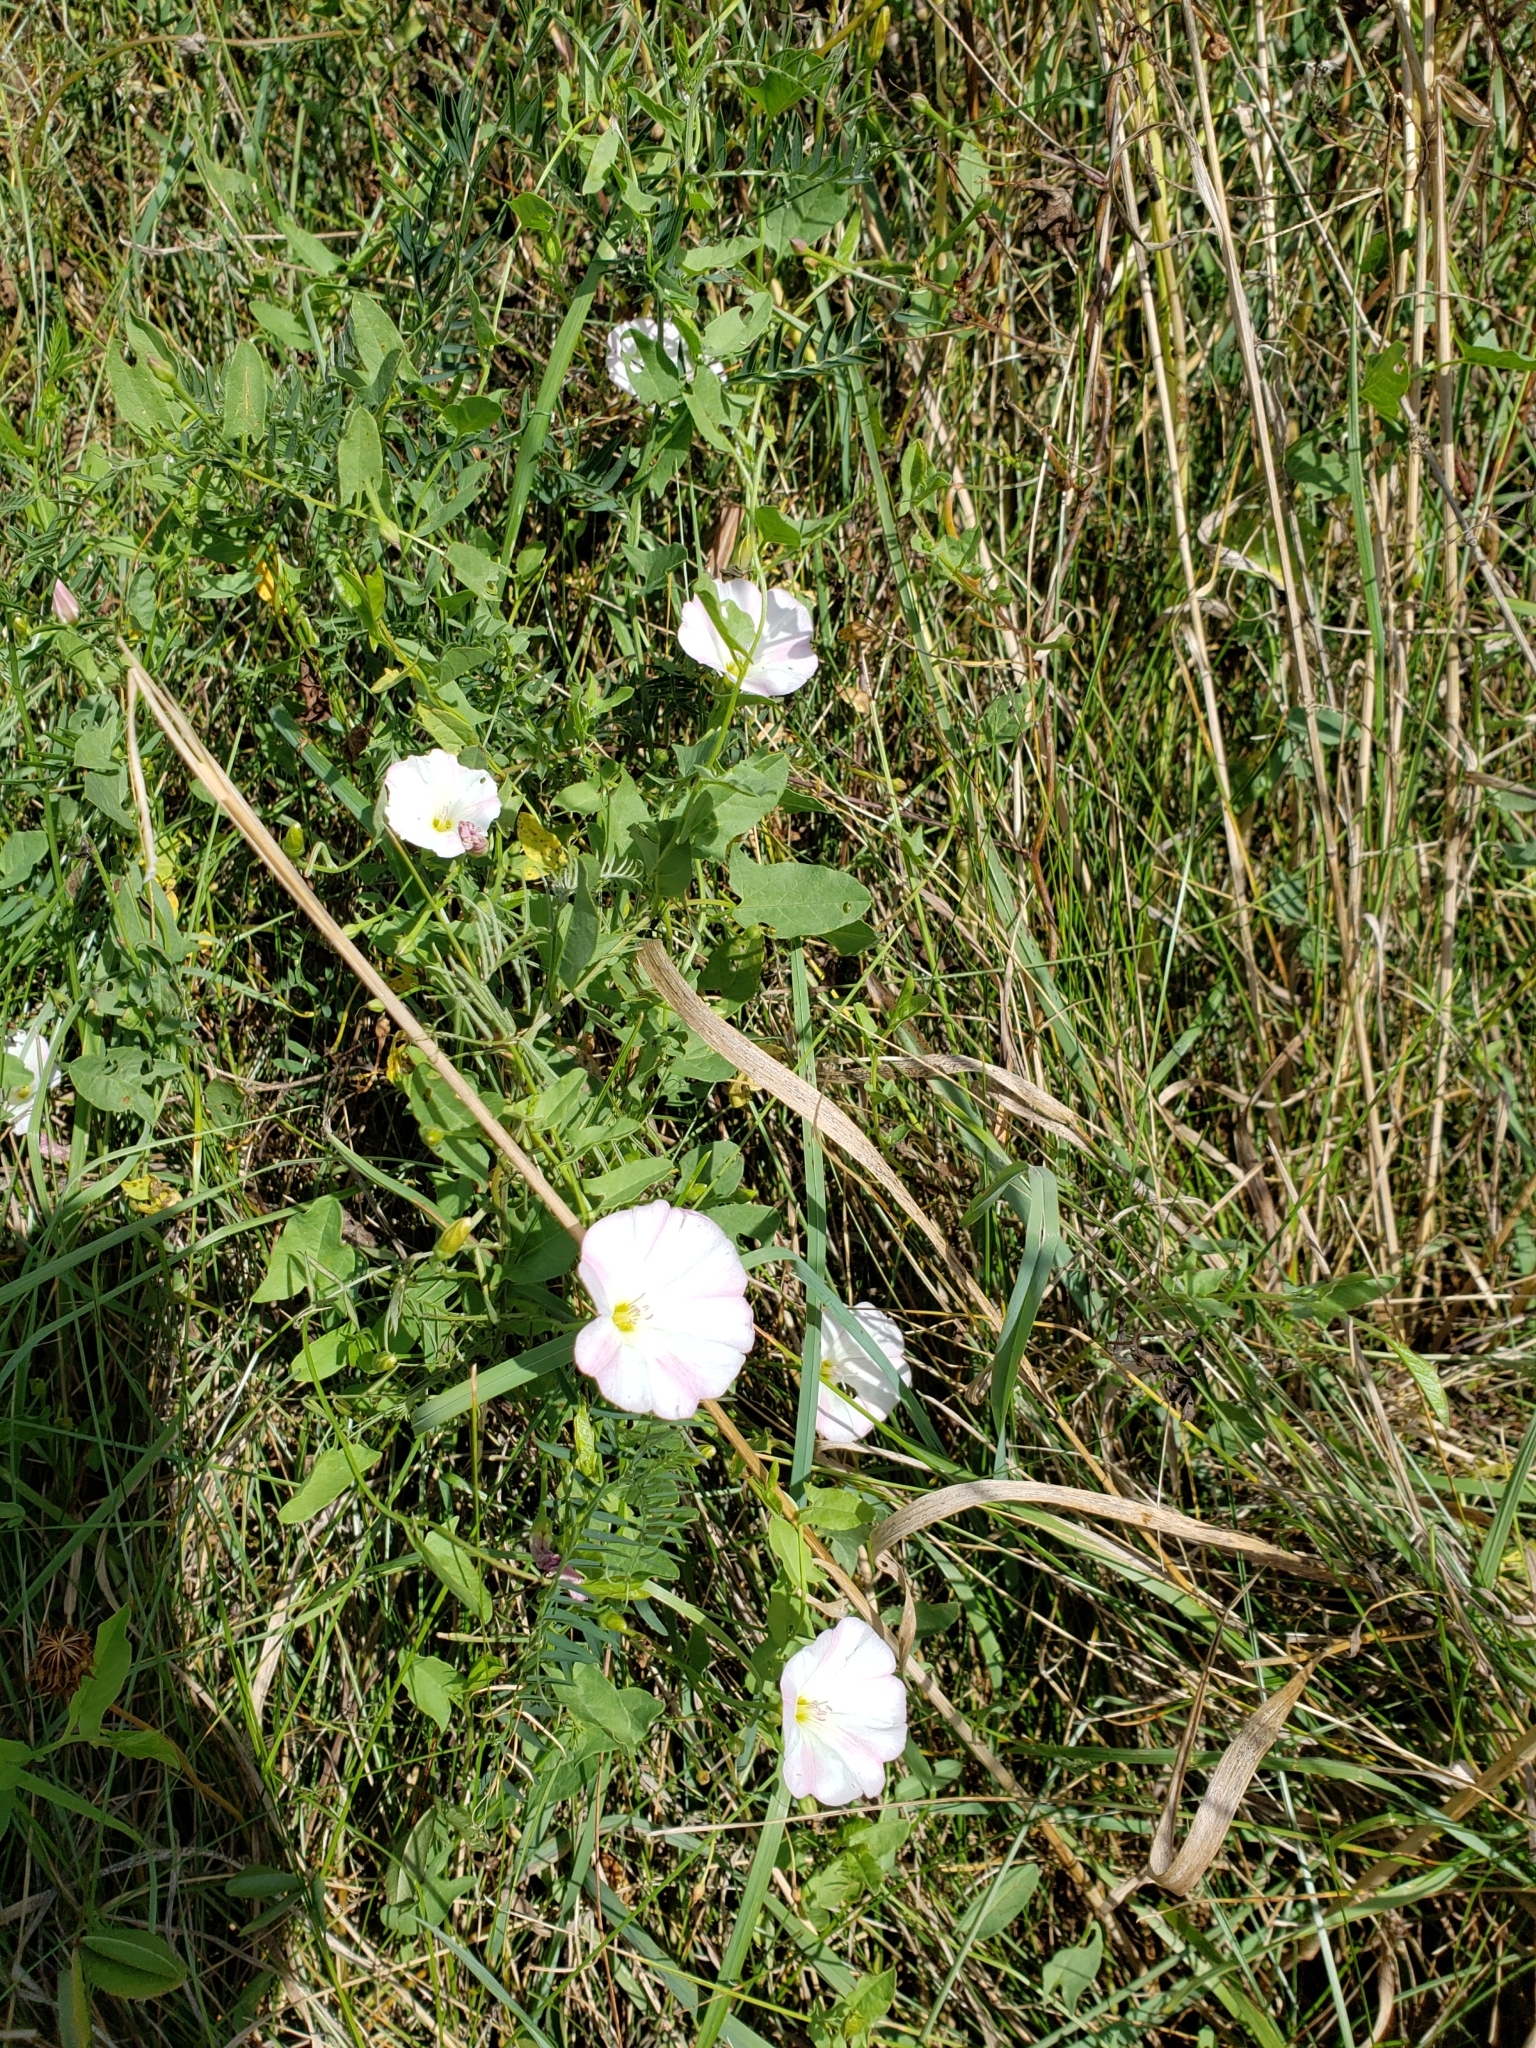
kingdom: Plantae
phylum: Tracheophyta
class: Magnoliopsida
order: Solanales
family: Convolvulaceae
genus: Convolvulus
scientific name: Convolvulus arvensis
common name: Field bindweed
